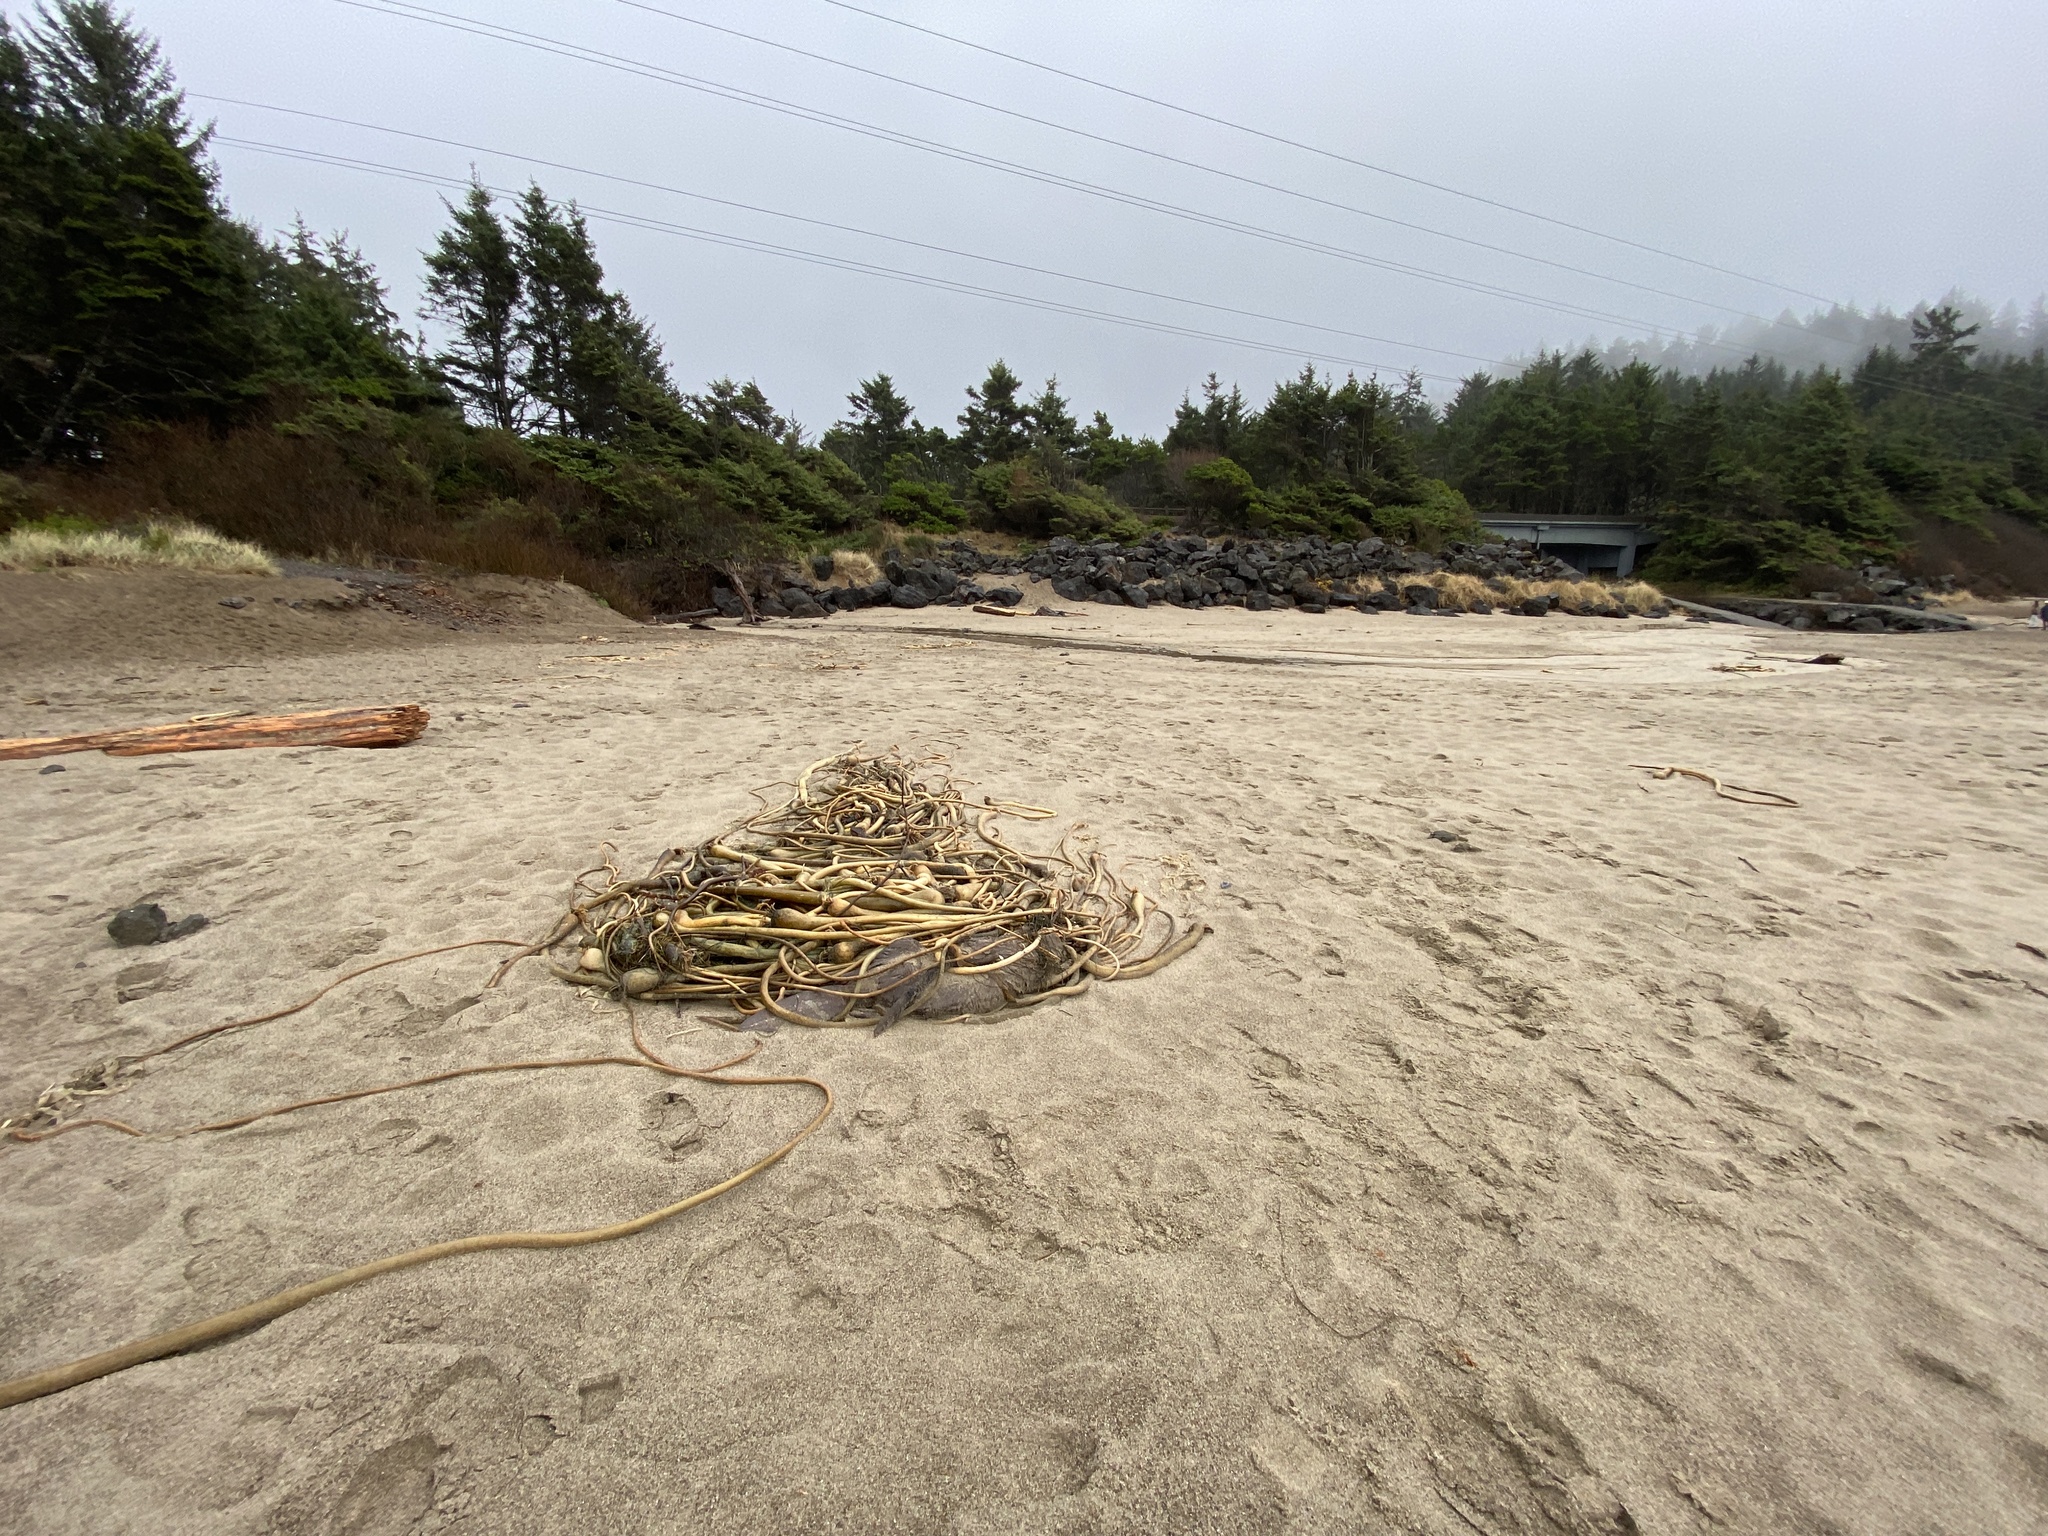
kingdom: Animalia
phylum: Chordata
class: Mammalia
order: Rodentia
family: Castoridae
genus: Castor
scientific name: Castor canadensis
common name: American beaver
